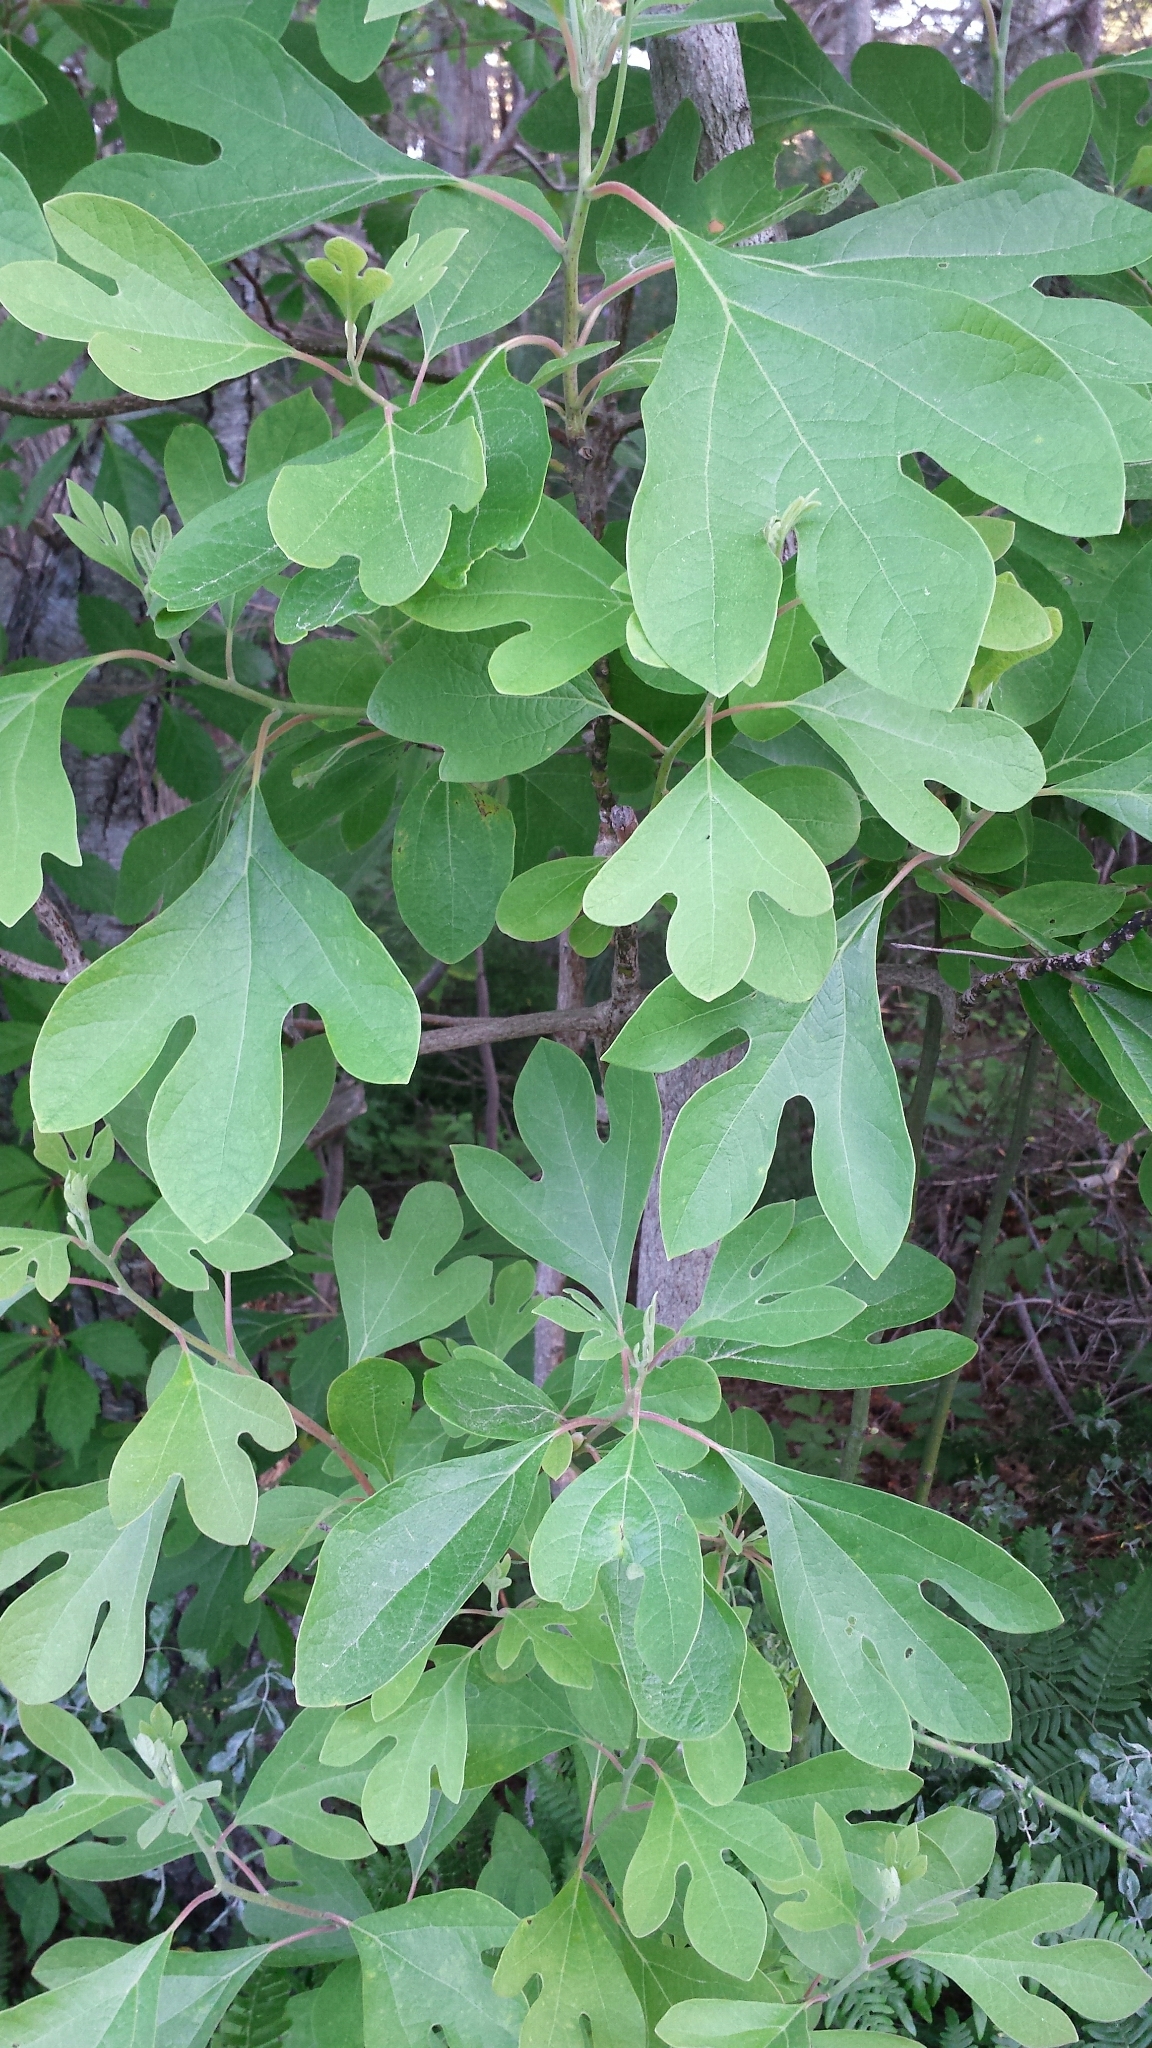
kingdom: Plantae
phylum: Tracheophyta
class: Magnoliopsida
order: Laurales
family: Lauraceae
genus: Sassafras
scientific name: Sassafras albidum
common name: Sassafras
